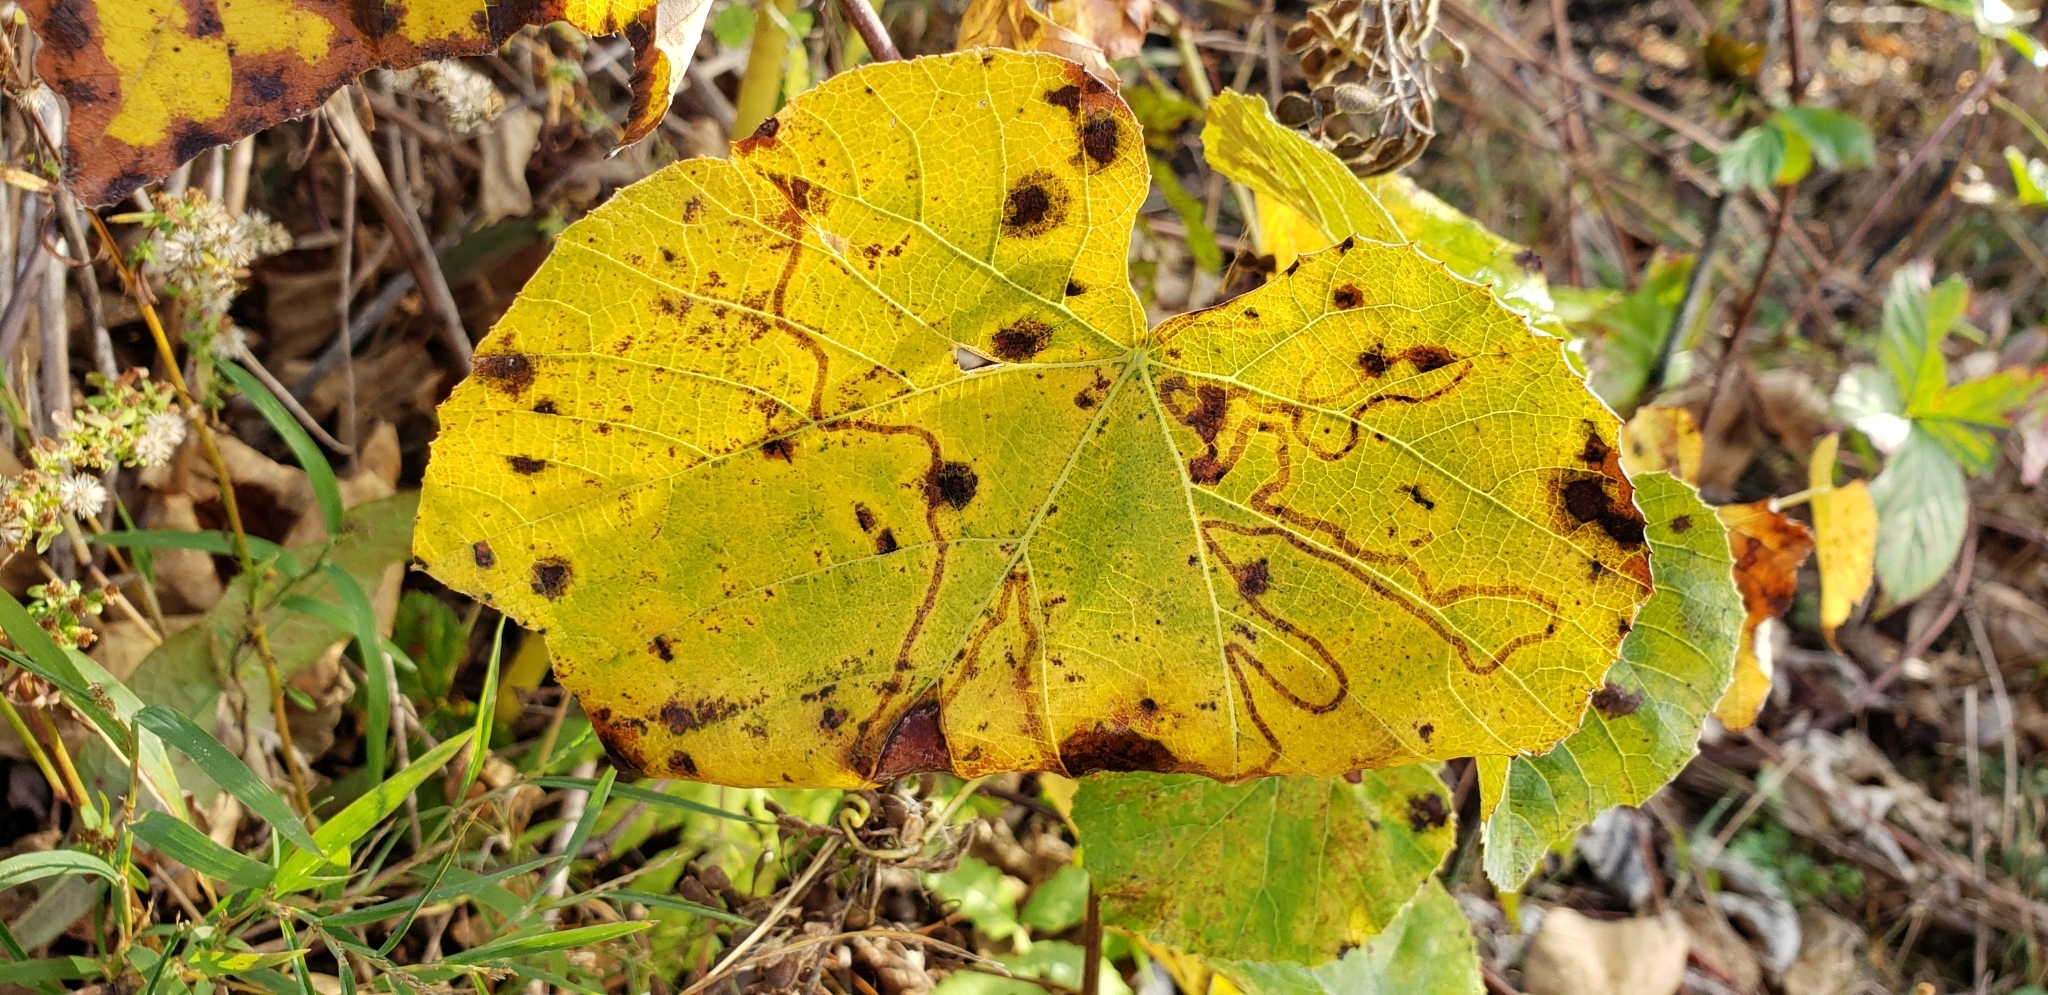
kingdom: Animalia
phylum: Arthropoda
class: Insecta
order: Lepidoptera
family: Gracillariidae
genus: Phyllocnistis
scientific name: Phyllocnistis vitegenella
